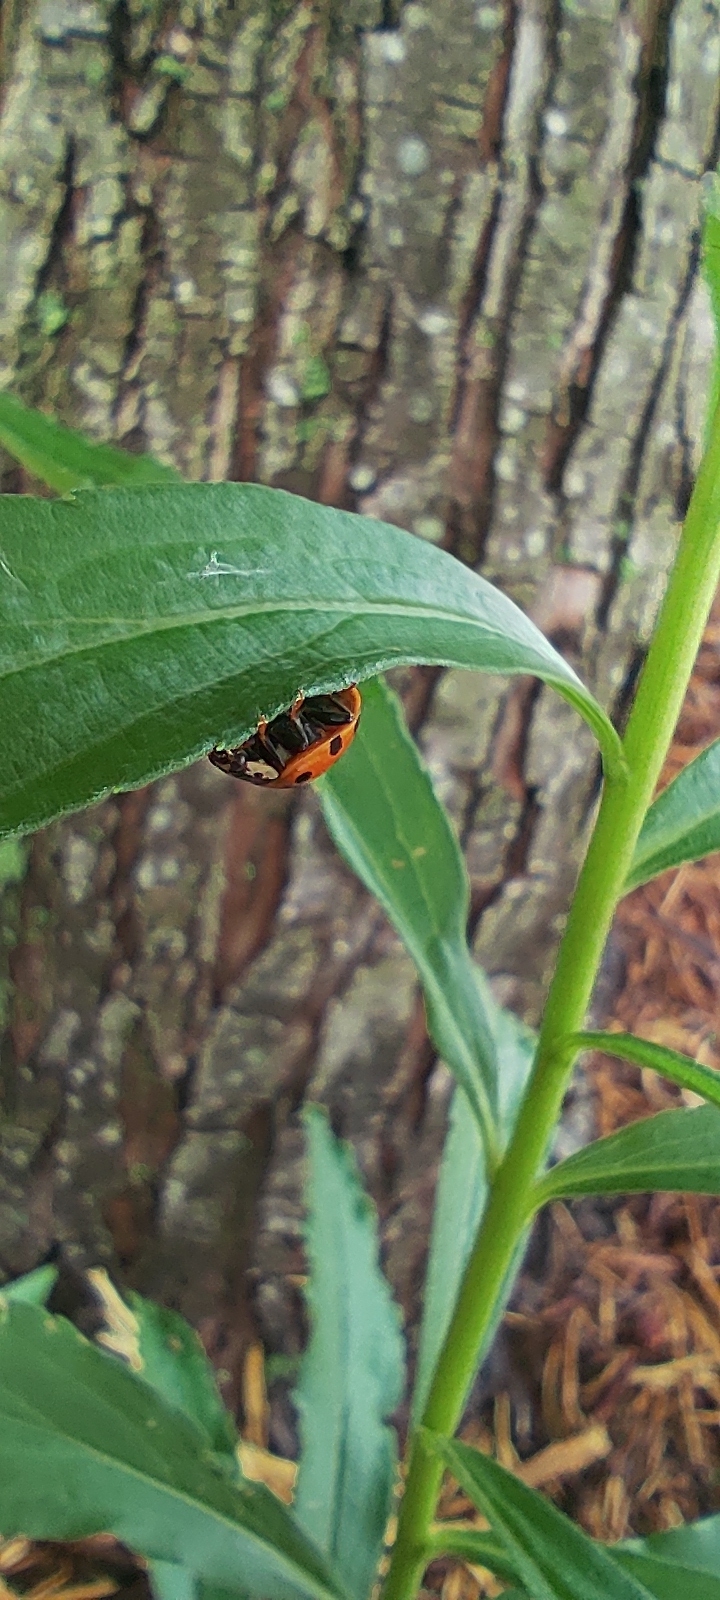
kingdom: Animalia
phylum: Arthropoda
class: Insecta
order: Coleoptera
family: Coccinellidae
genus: Harmonia
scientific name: Harmonia axyridis
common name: Harlequin ladybird
